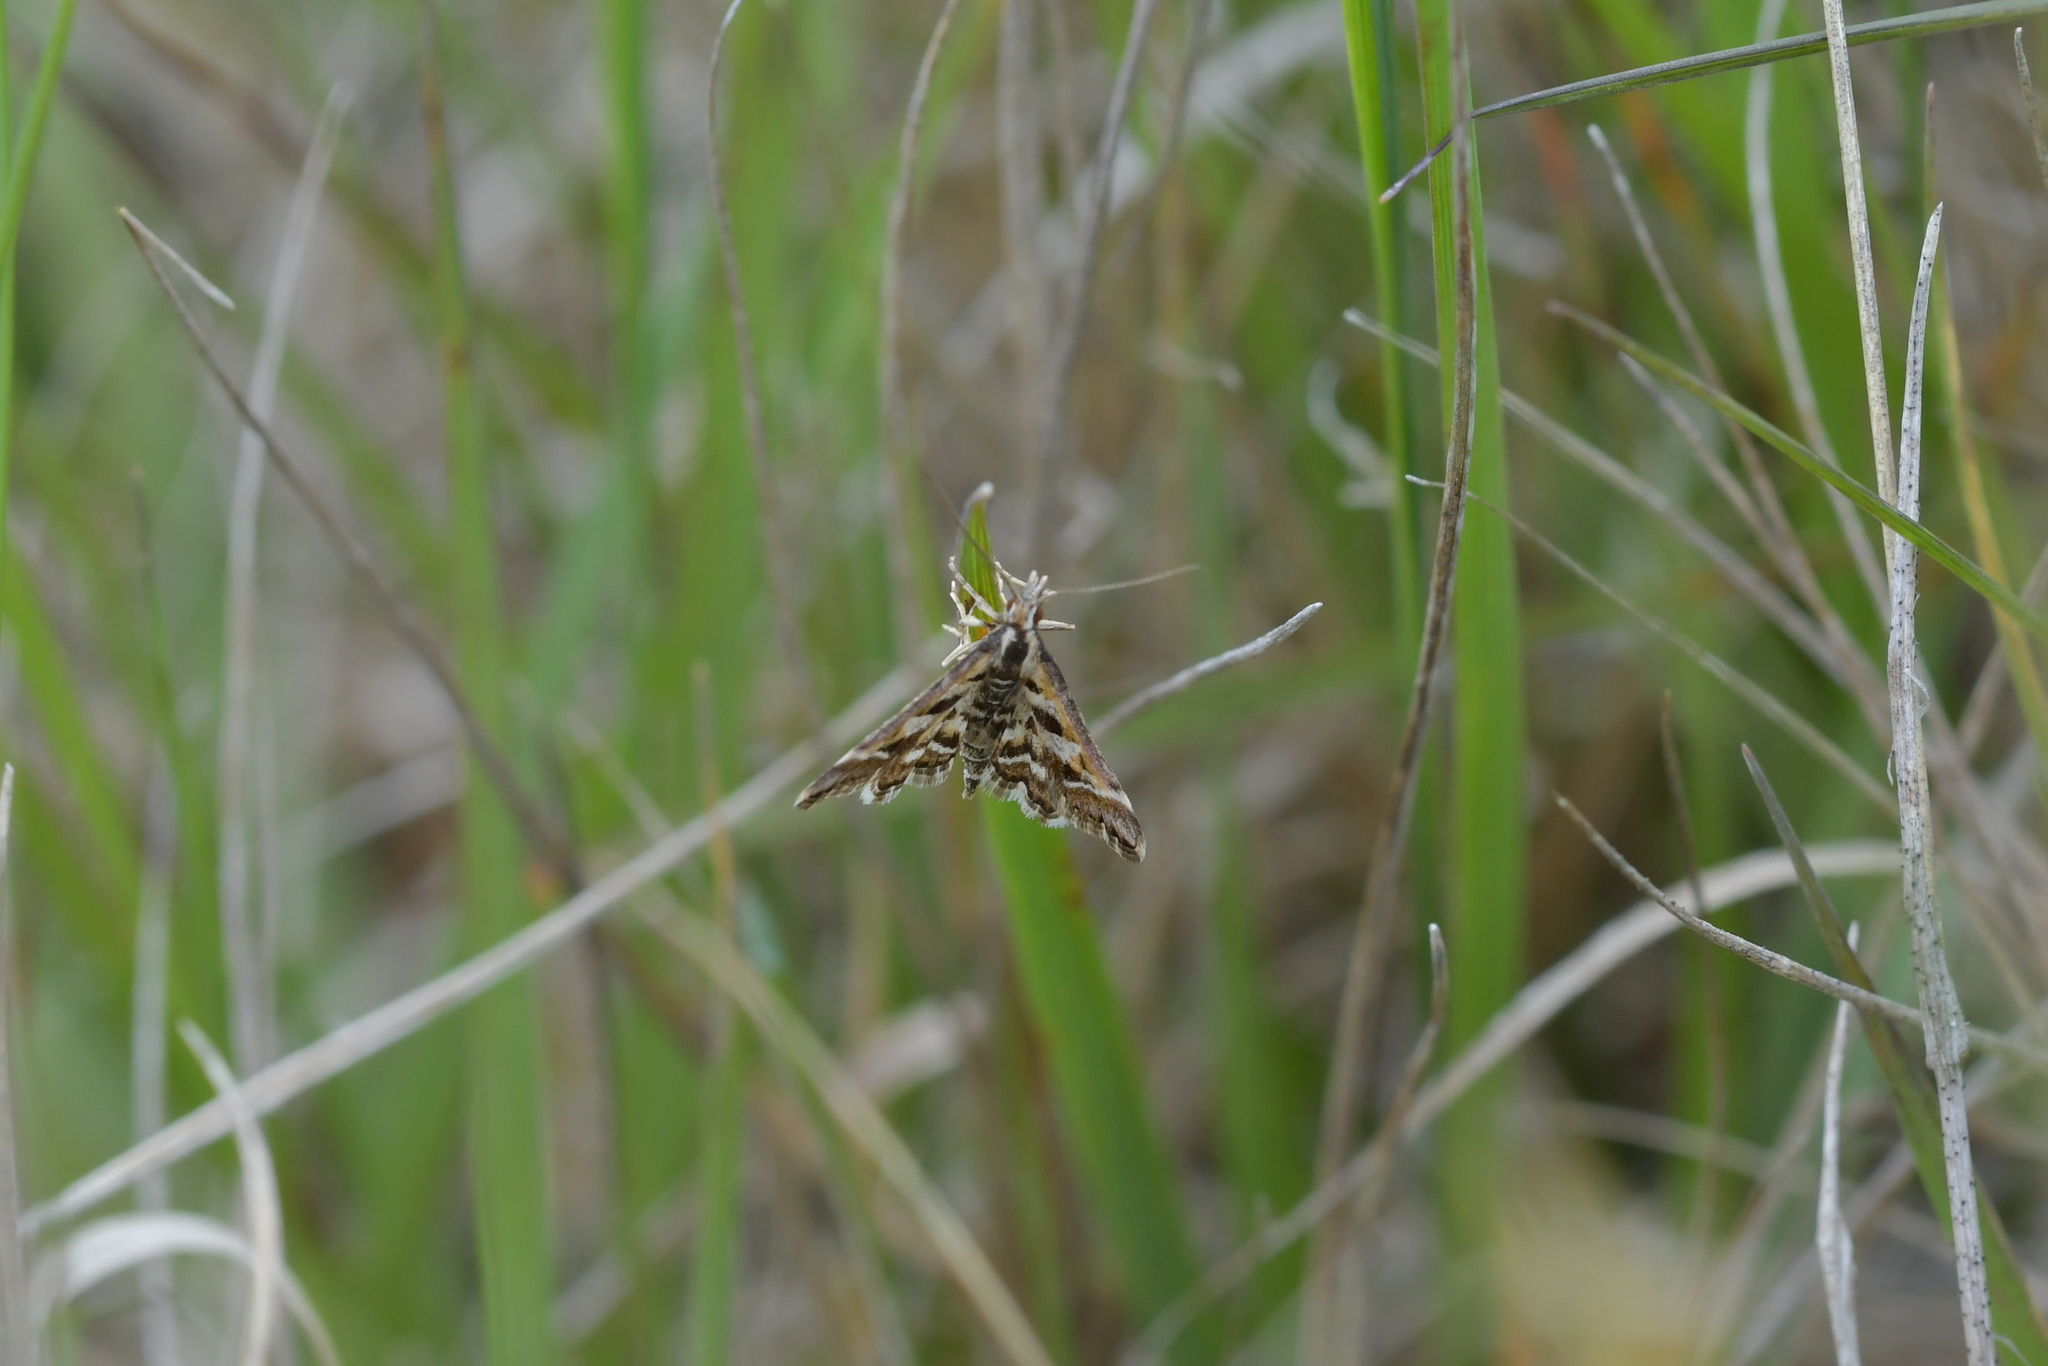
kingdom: Animalia
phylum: Arthropoda
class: Insecta
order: Lepidoptera
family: Crambidae
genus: Diasemia
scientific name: Diasemia grammalis
